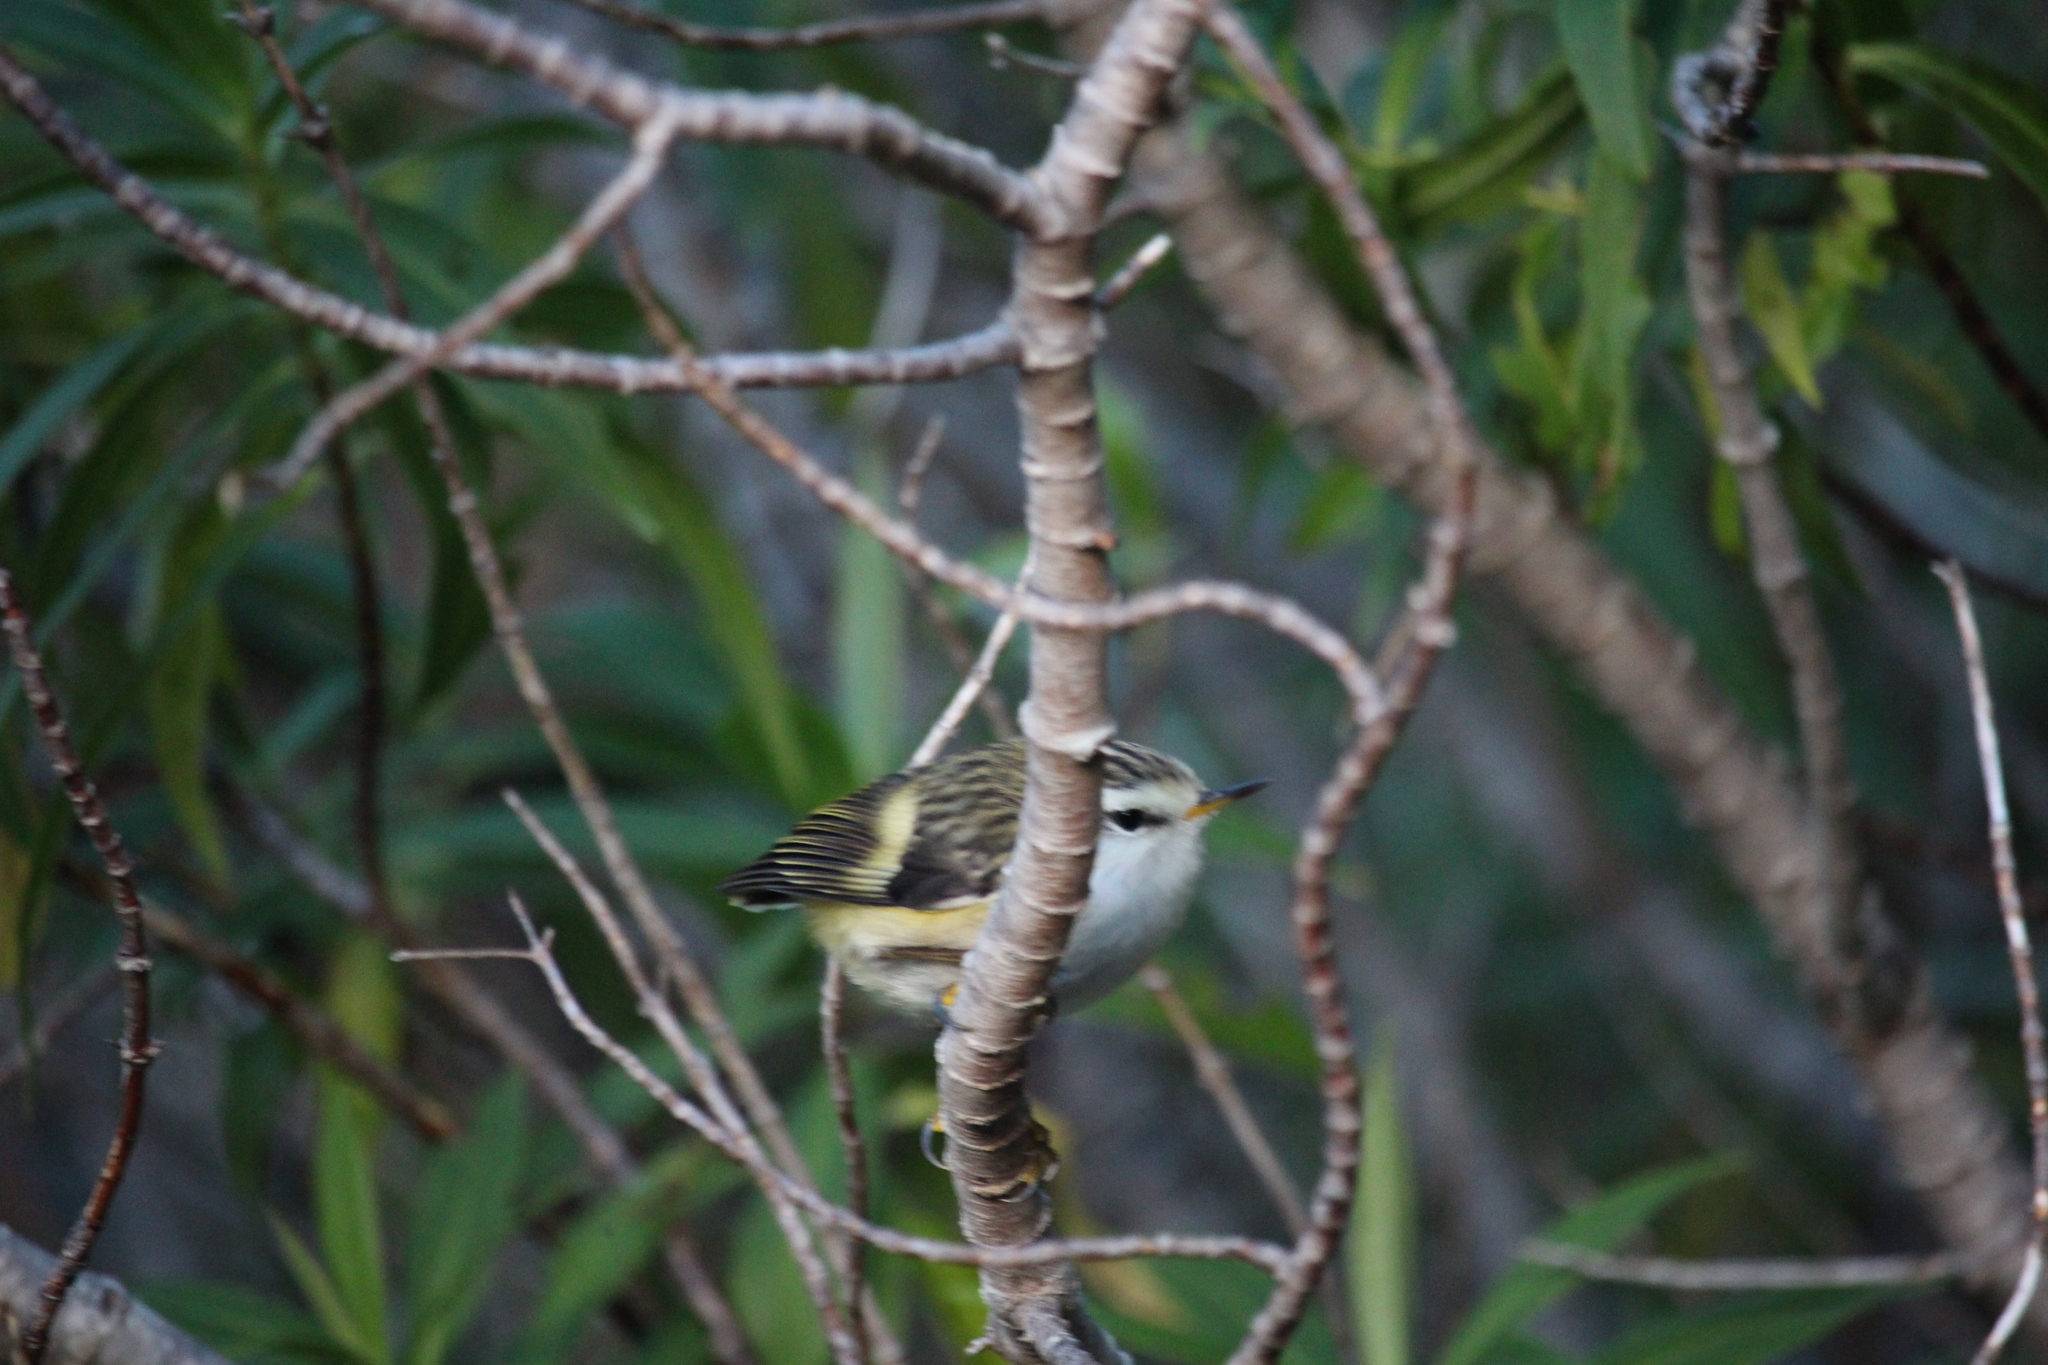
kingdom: Animalia
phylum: Chordata
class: Aves
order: Passeriformes
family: Acanthisittidae
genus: Acanthisitta
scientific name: Acanthisitta chloris
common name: Rifleman
